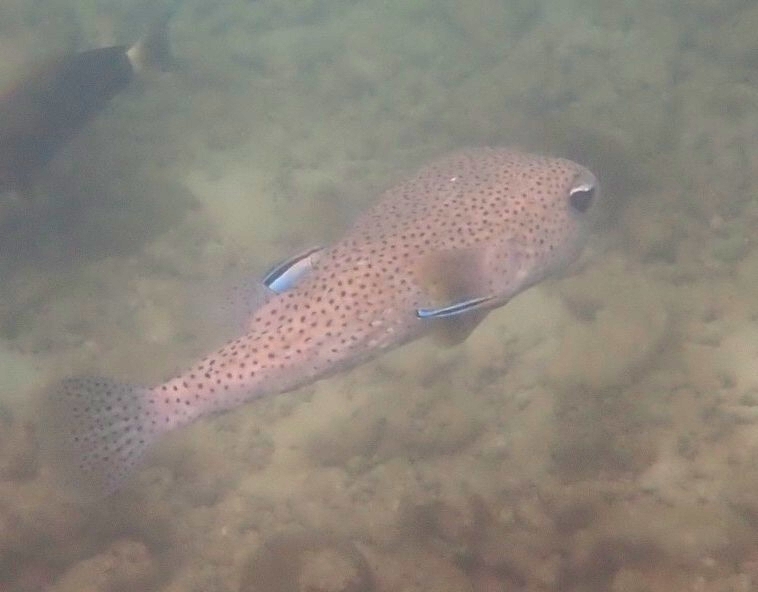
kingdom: Animalia
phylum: Chordata
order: Tetraodontiformes
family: Diodontidae
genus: Diodon
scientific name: Diodon hystrix
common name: Giant porcupinefish
